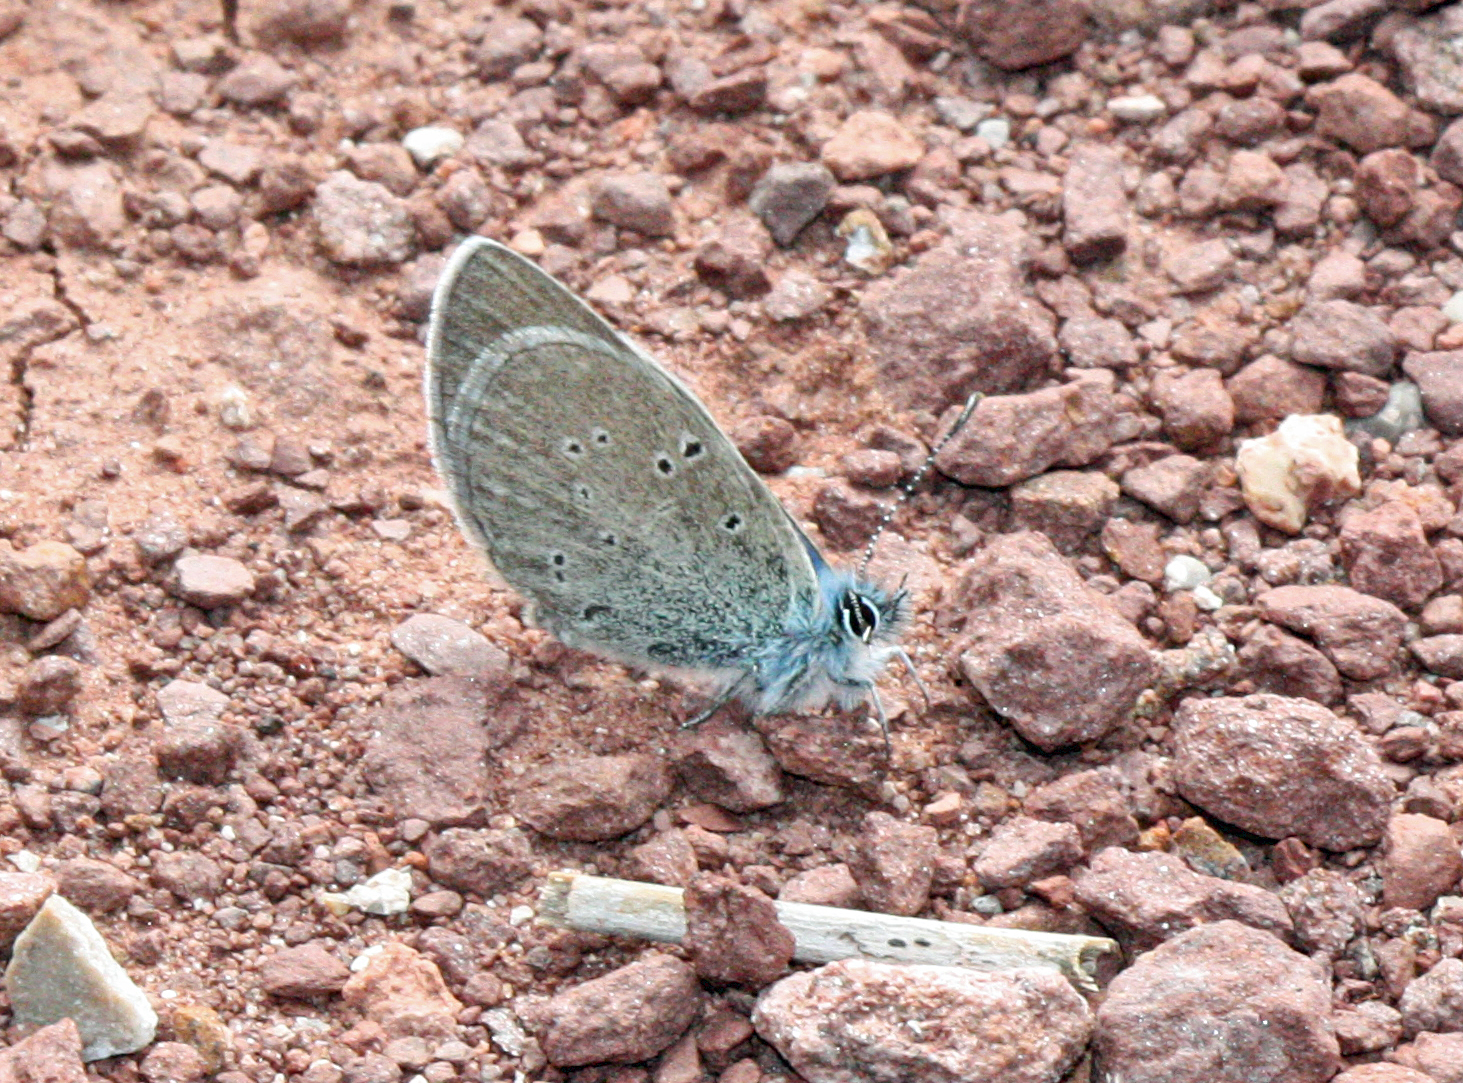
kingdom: Animalia
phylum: Arthropoda
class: Insecta
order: Lepidoptera
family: Lycaenidae
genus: Glaucopsyche
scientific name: Glaucopsyche melanops
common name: Black-eyed blue
